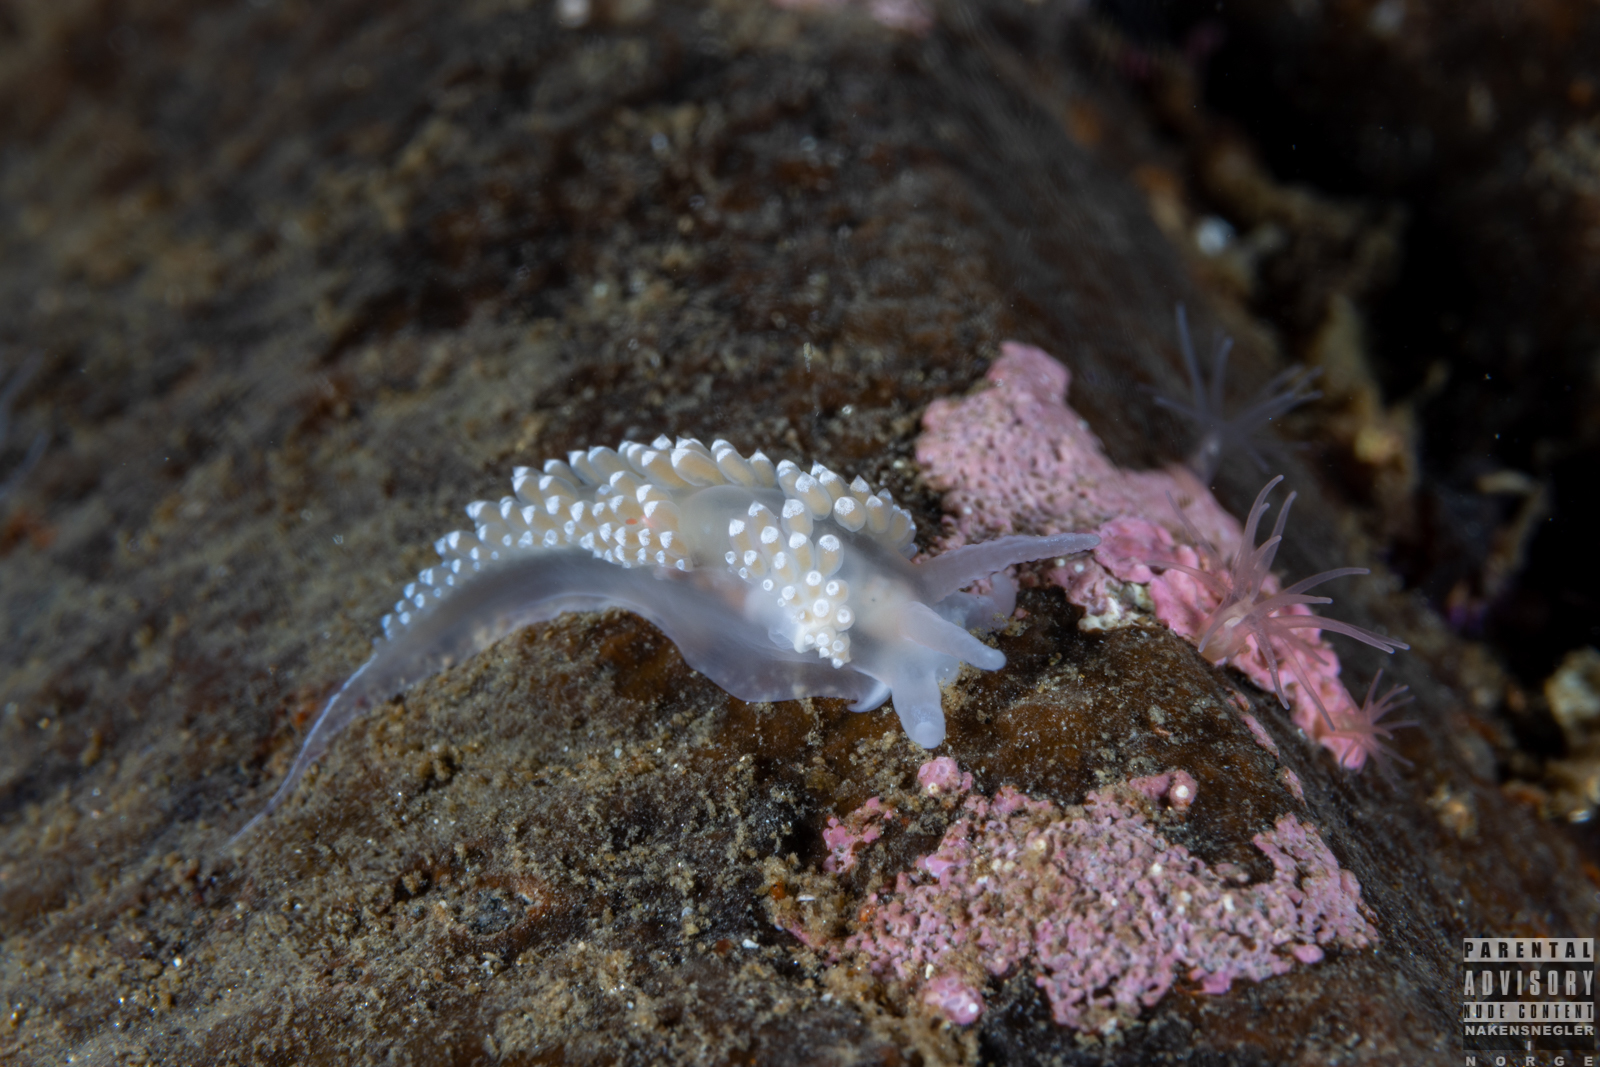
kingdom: Animalia
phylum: Mollusca
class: Gastropoda
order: Nudibranchia
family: Coryphellidae
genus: Coryphella
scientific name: Coryphella verrucosa
